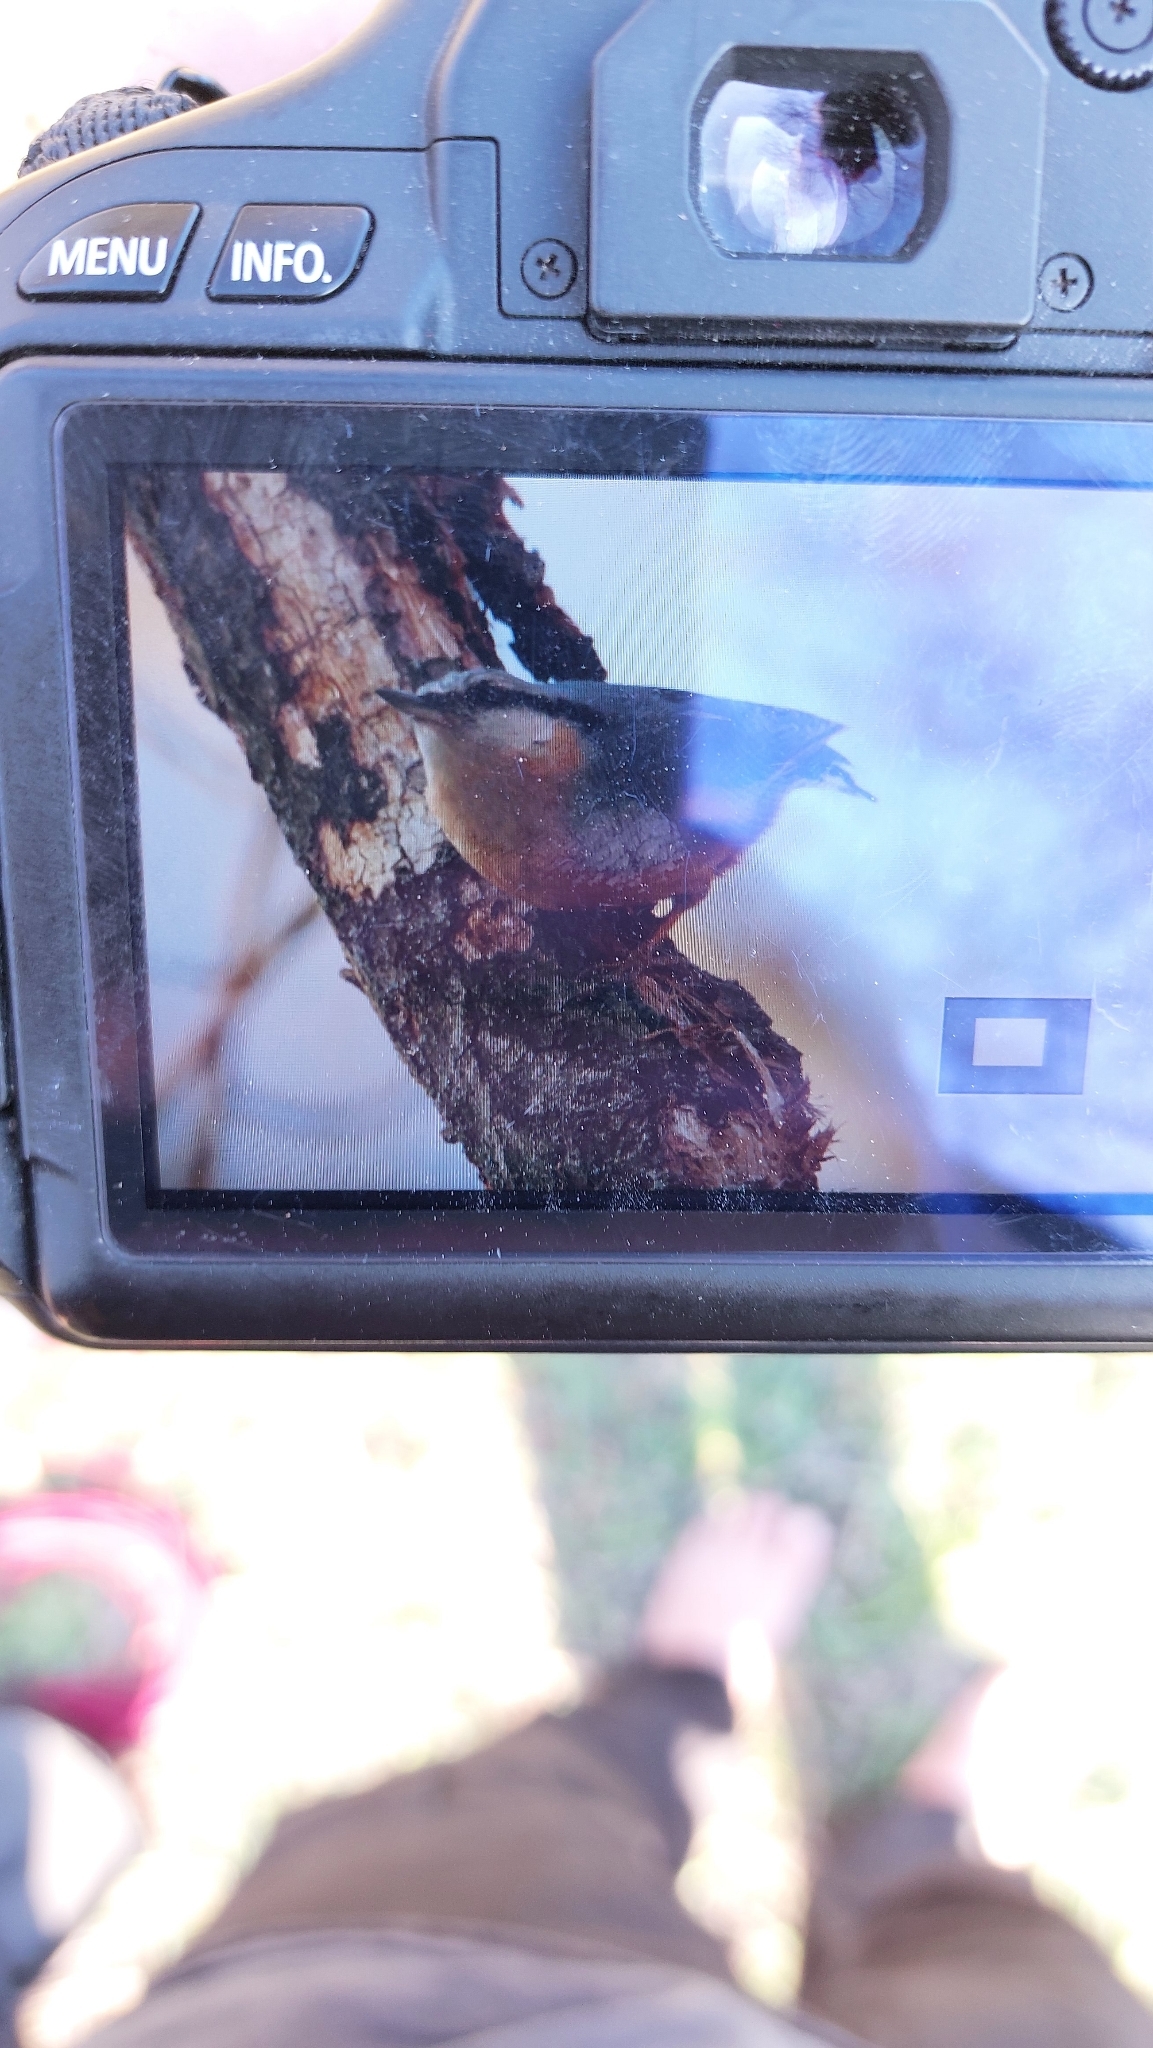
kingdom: Animalia
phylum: Chordata
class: Aves
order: Passeriformes
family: Sittidae
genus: Sitta
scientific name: Sitta europaea
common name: Eurasian nuthatch
